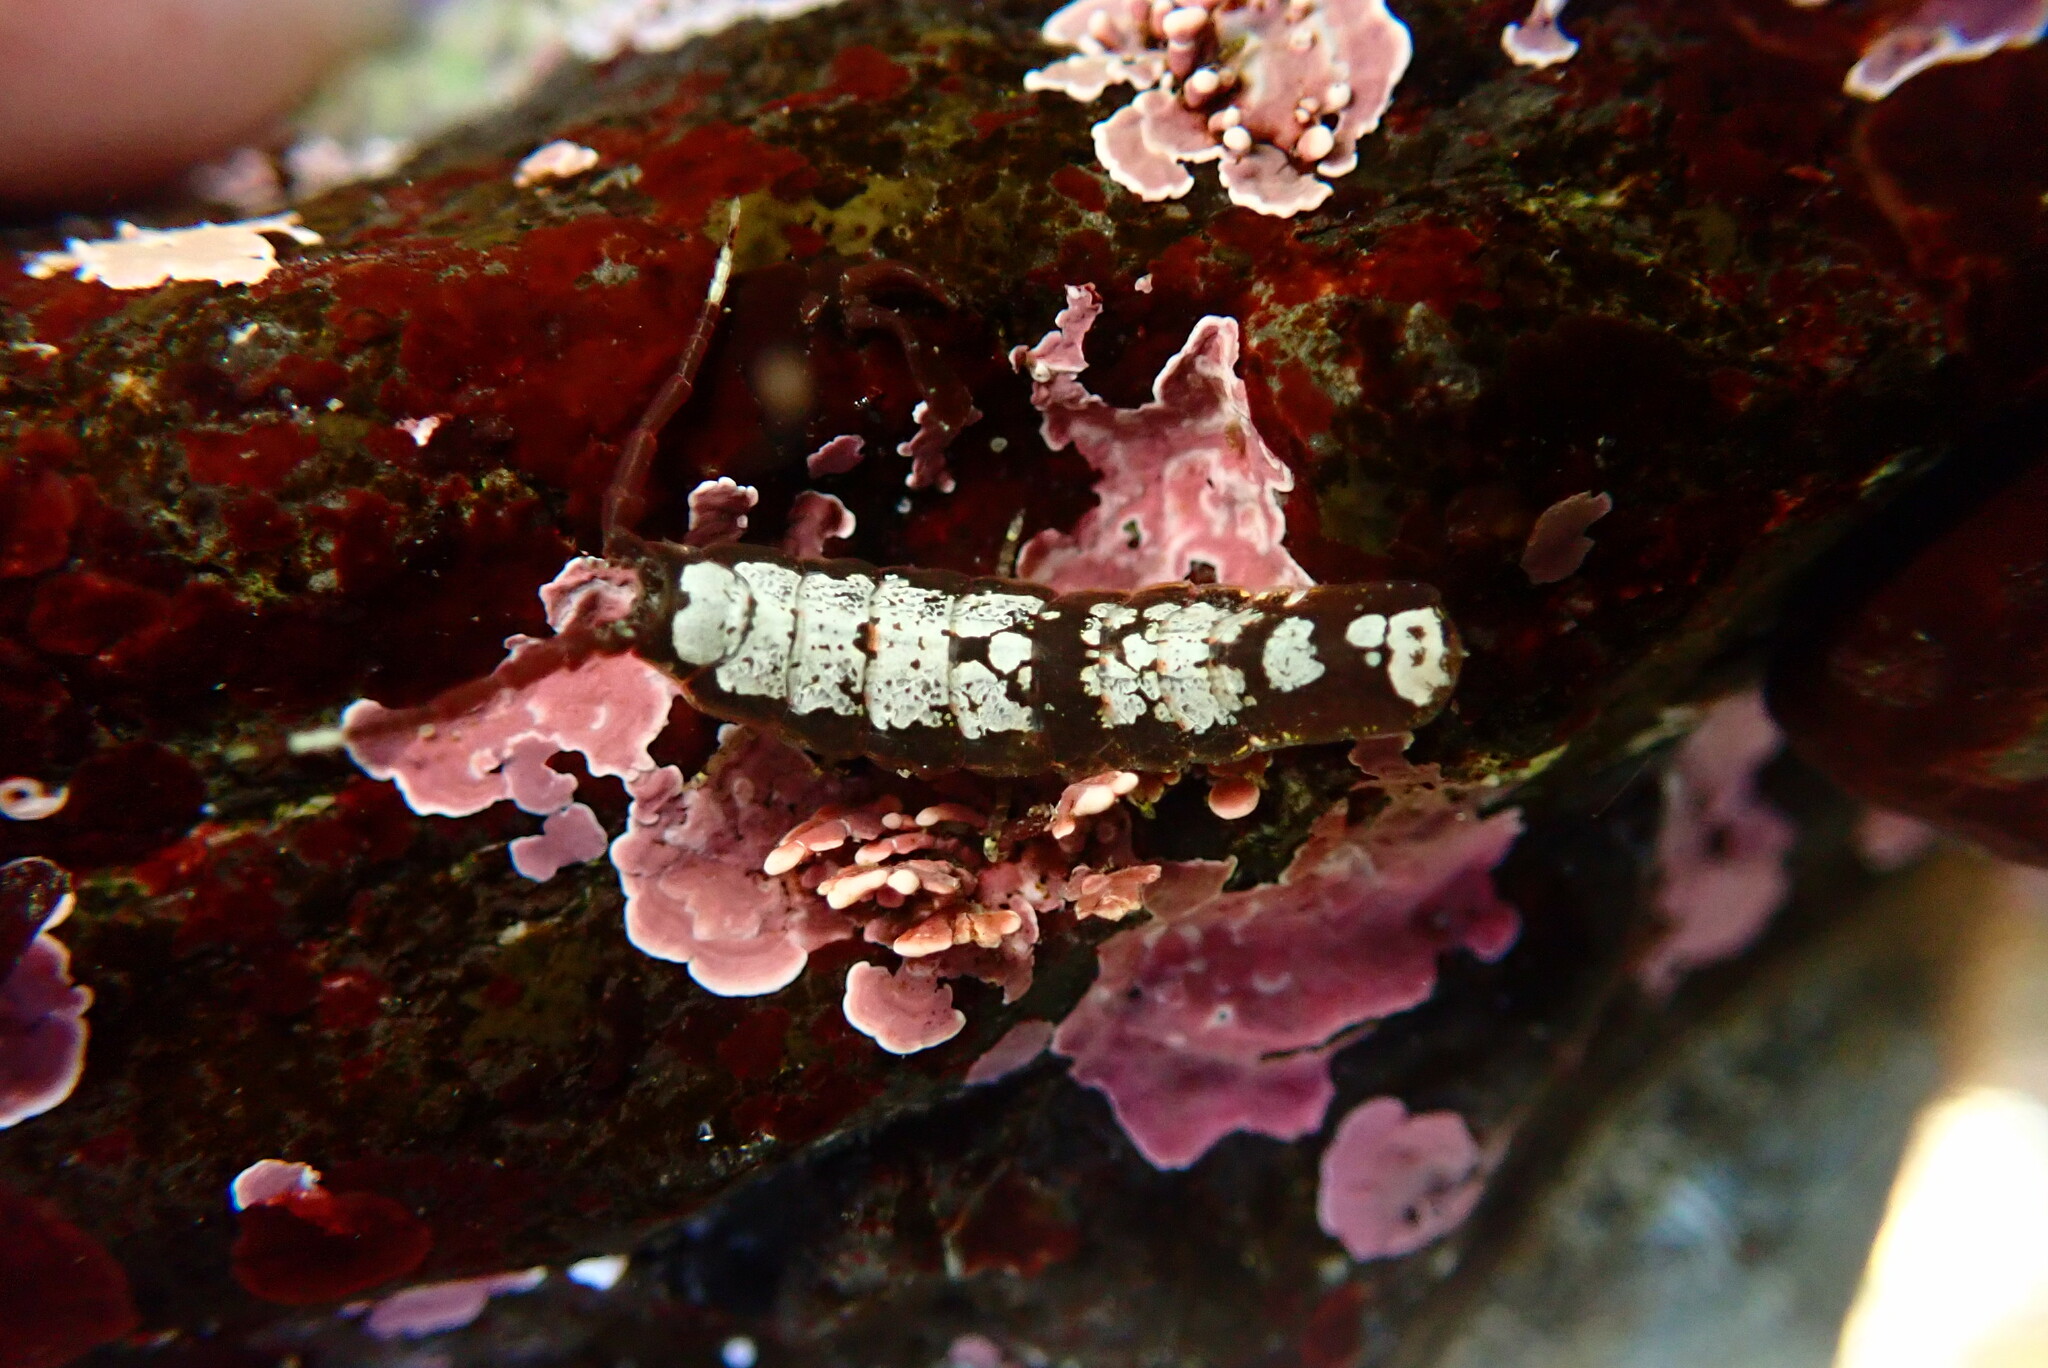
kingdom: Animalia
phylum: Arthropoda
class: Malacostraca
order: Isopoda
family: Idoteidae
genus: Idotea
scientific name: Idotea urotoma
